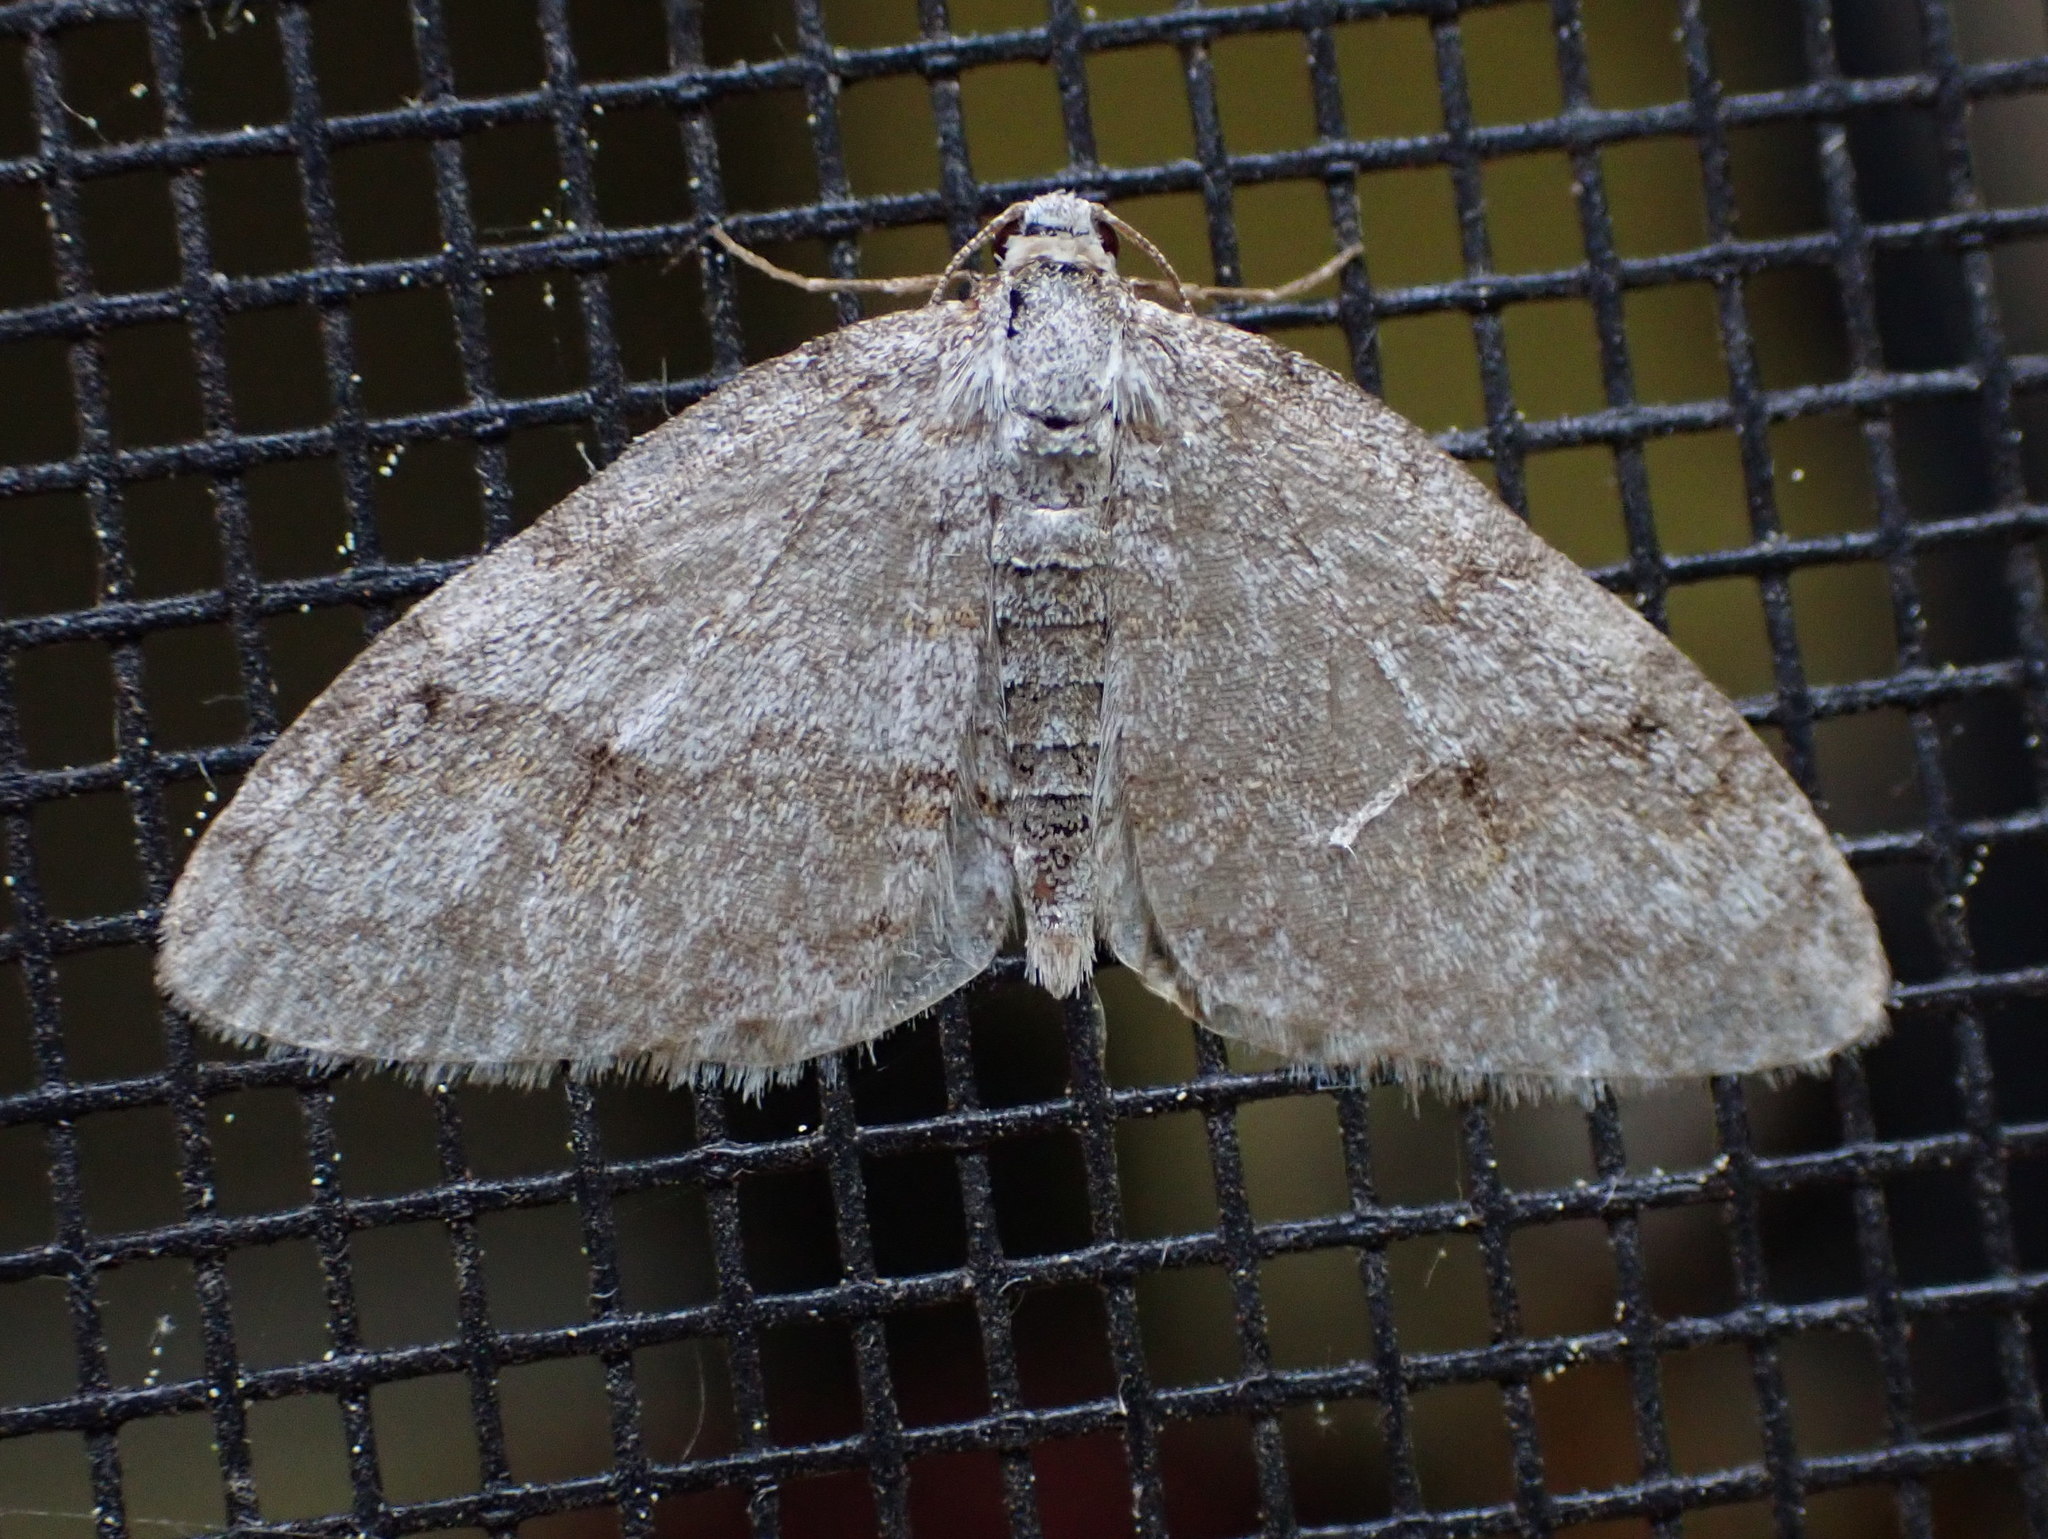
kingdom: Animalia
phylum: Arthropoda
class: Insecta
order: Lepidoptera
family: Geometridae
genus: Venusia
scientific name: Venusia comptaria
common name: Brown-shaded carpet
